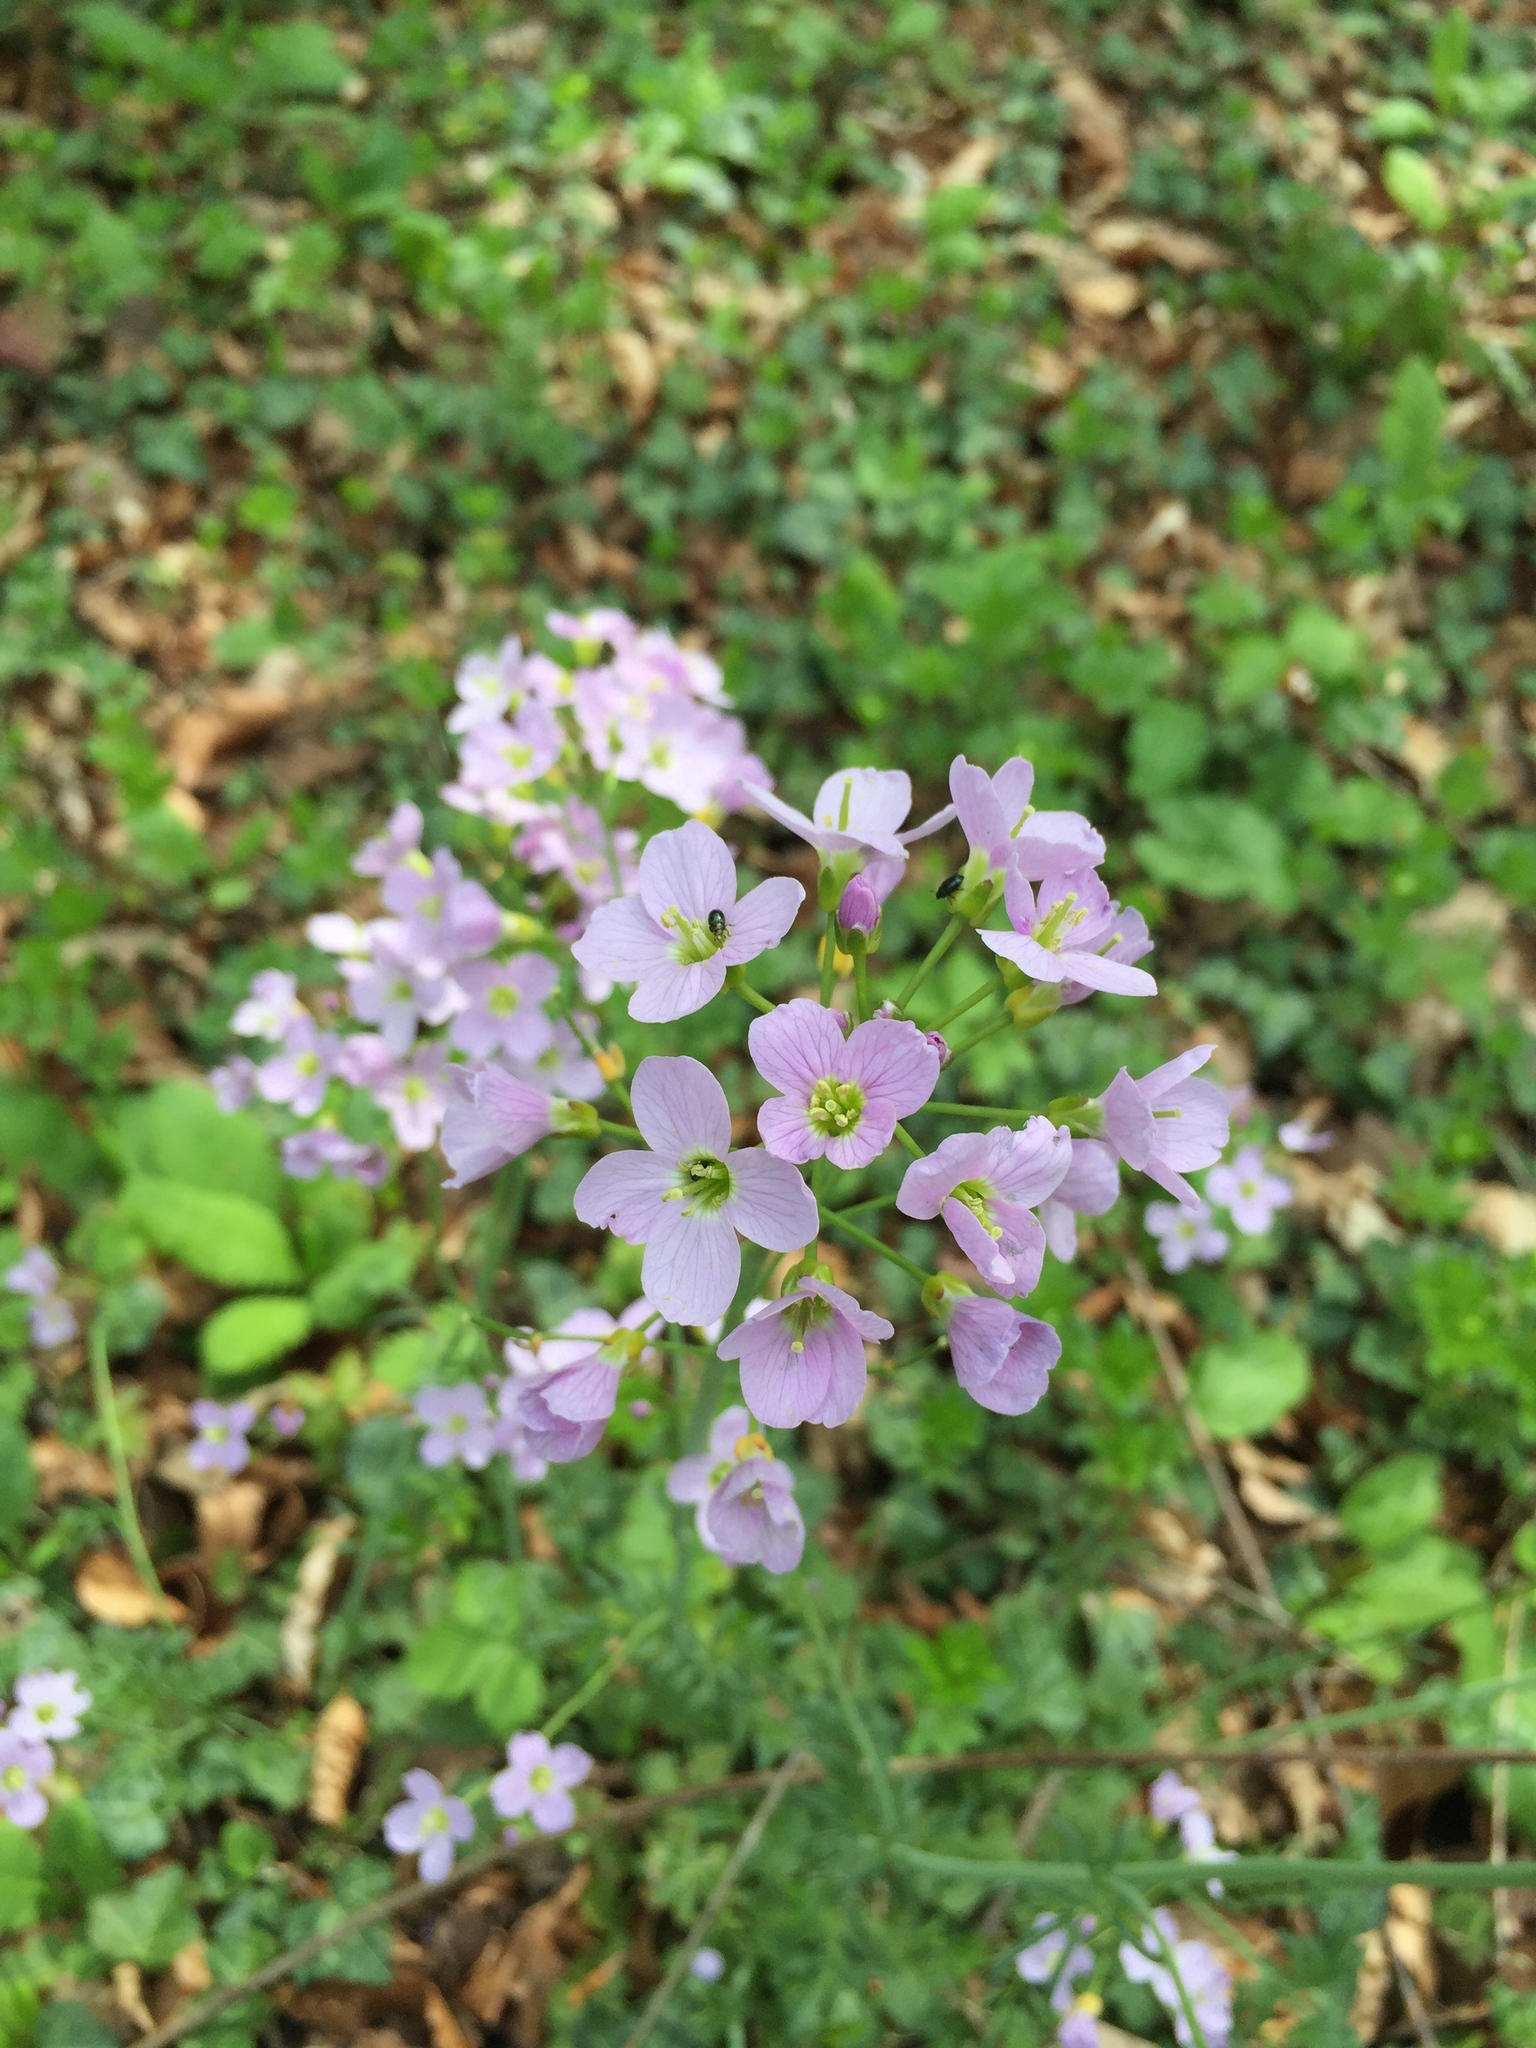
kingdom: Plantae
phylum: Tracheophyta
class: Magnoliopsida
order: Brassicales
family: Brassicaceae
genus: Cardamine
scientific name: Cardamine pratensis
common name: Cuckoo flower
